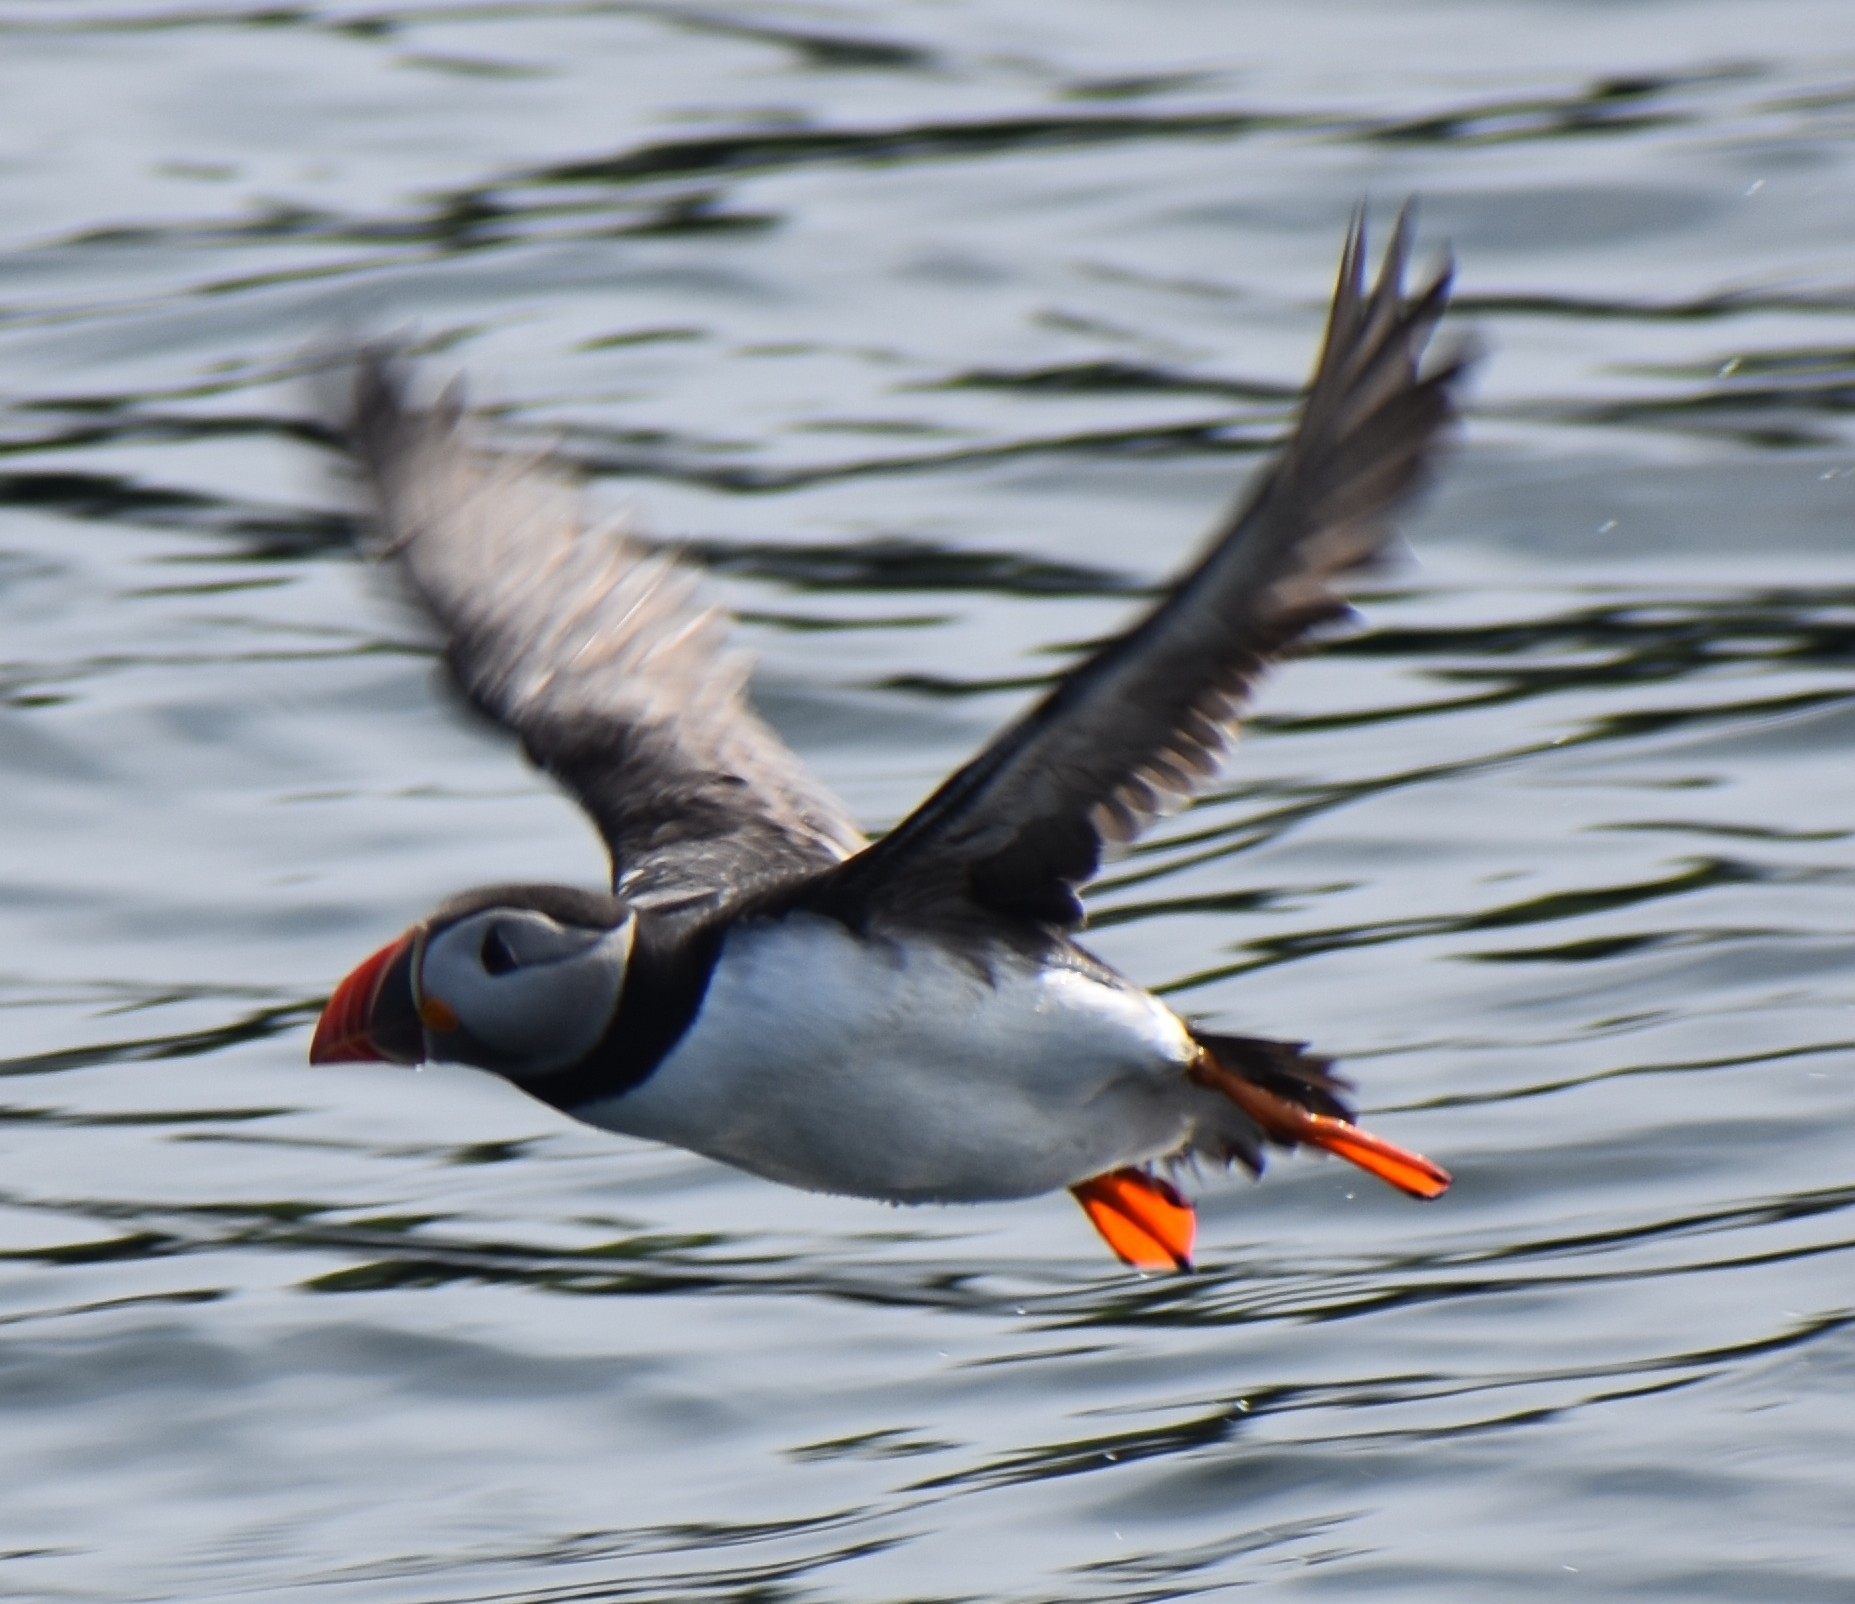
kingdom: Animalia
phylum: Chordata
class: Aves
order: Charadriiformes
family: Alcidae
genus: Fratercula
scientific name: Fratercula arctica
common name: Atlantic puffin
